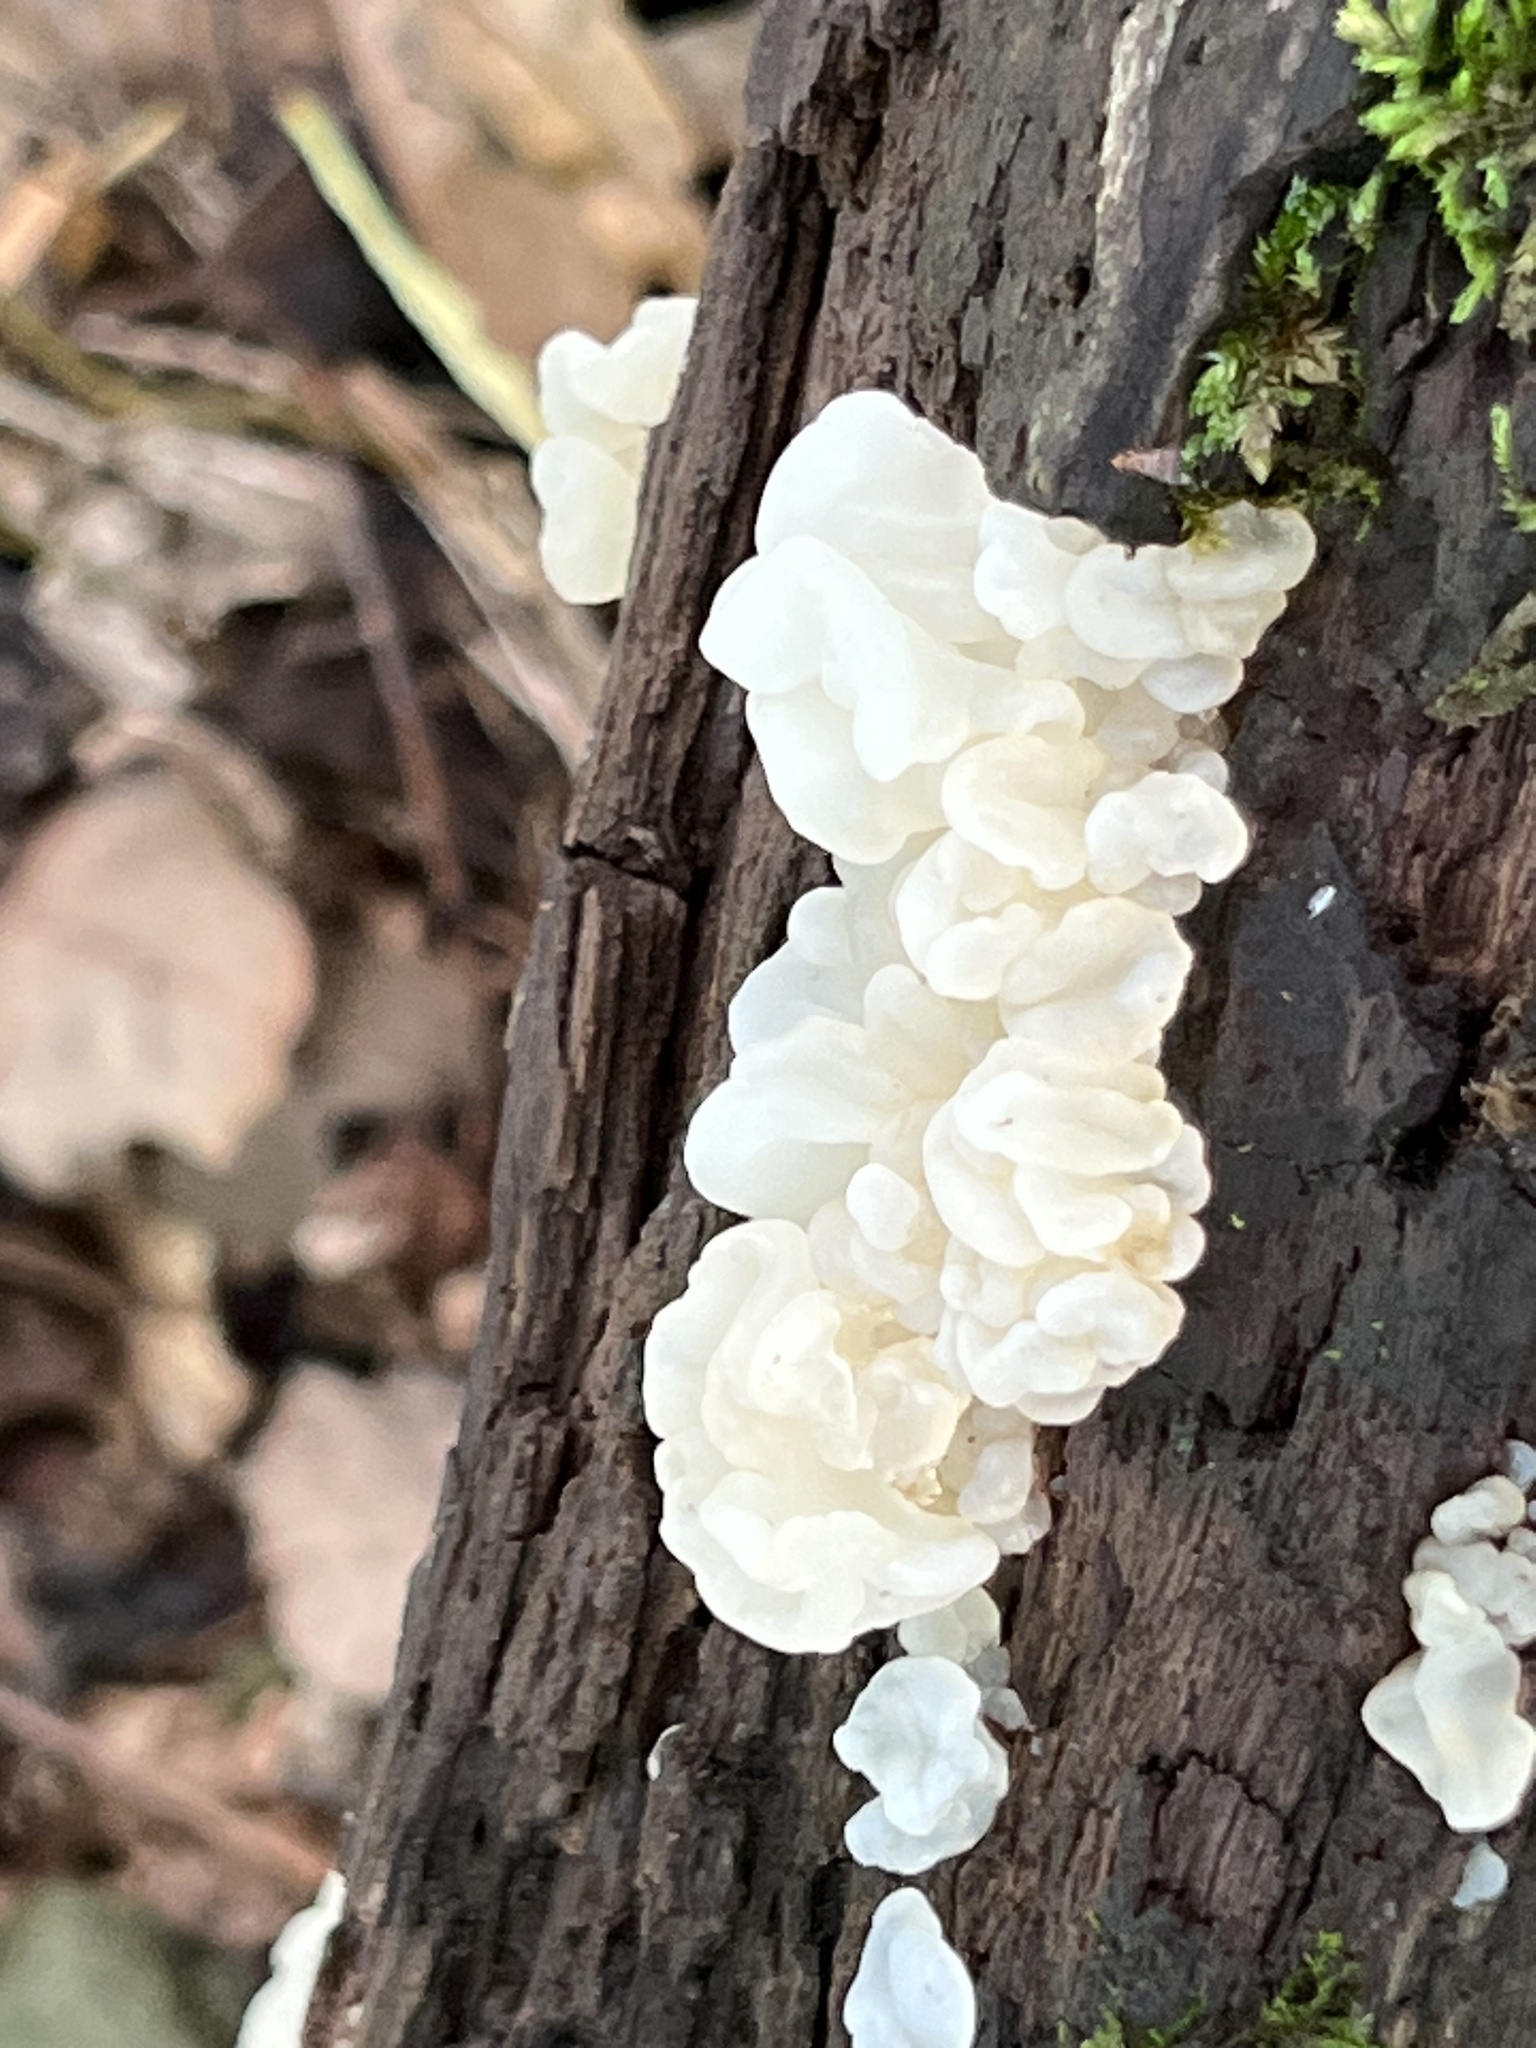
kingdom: Fungi
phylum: Basidiomycota
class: Agaricomycetes
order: Auriculariales
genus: Ductifera
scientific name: Ductifera pululahuana
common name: White jelly fungus
